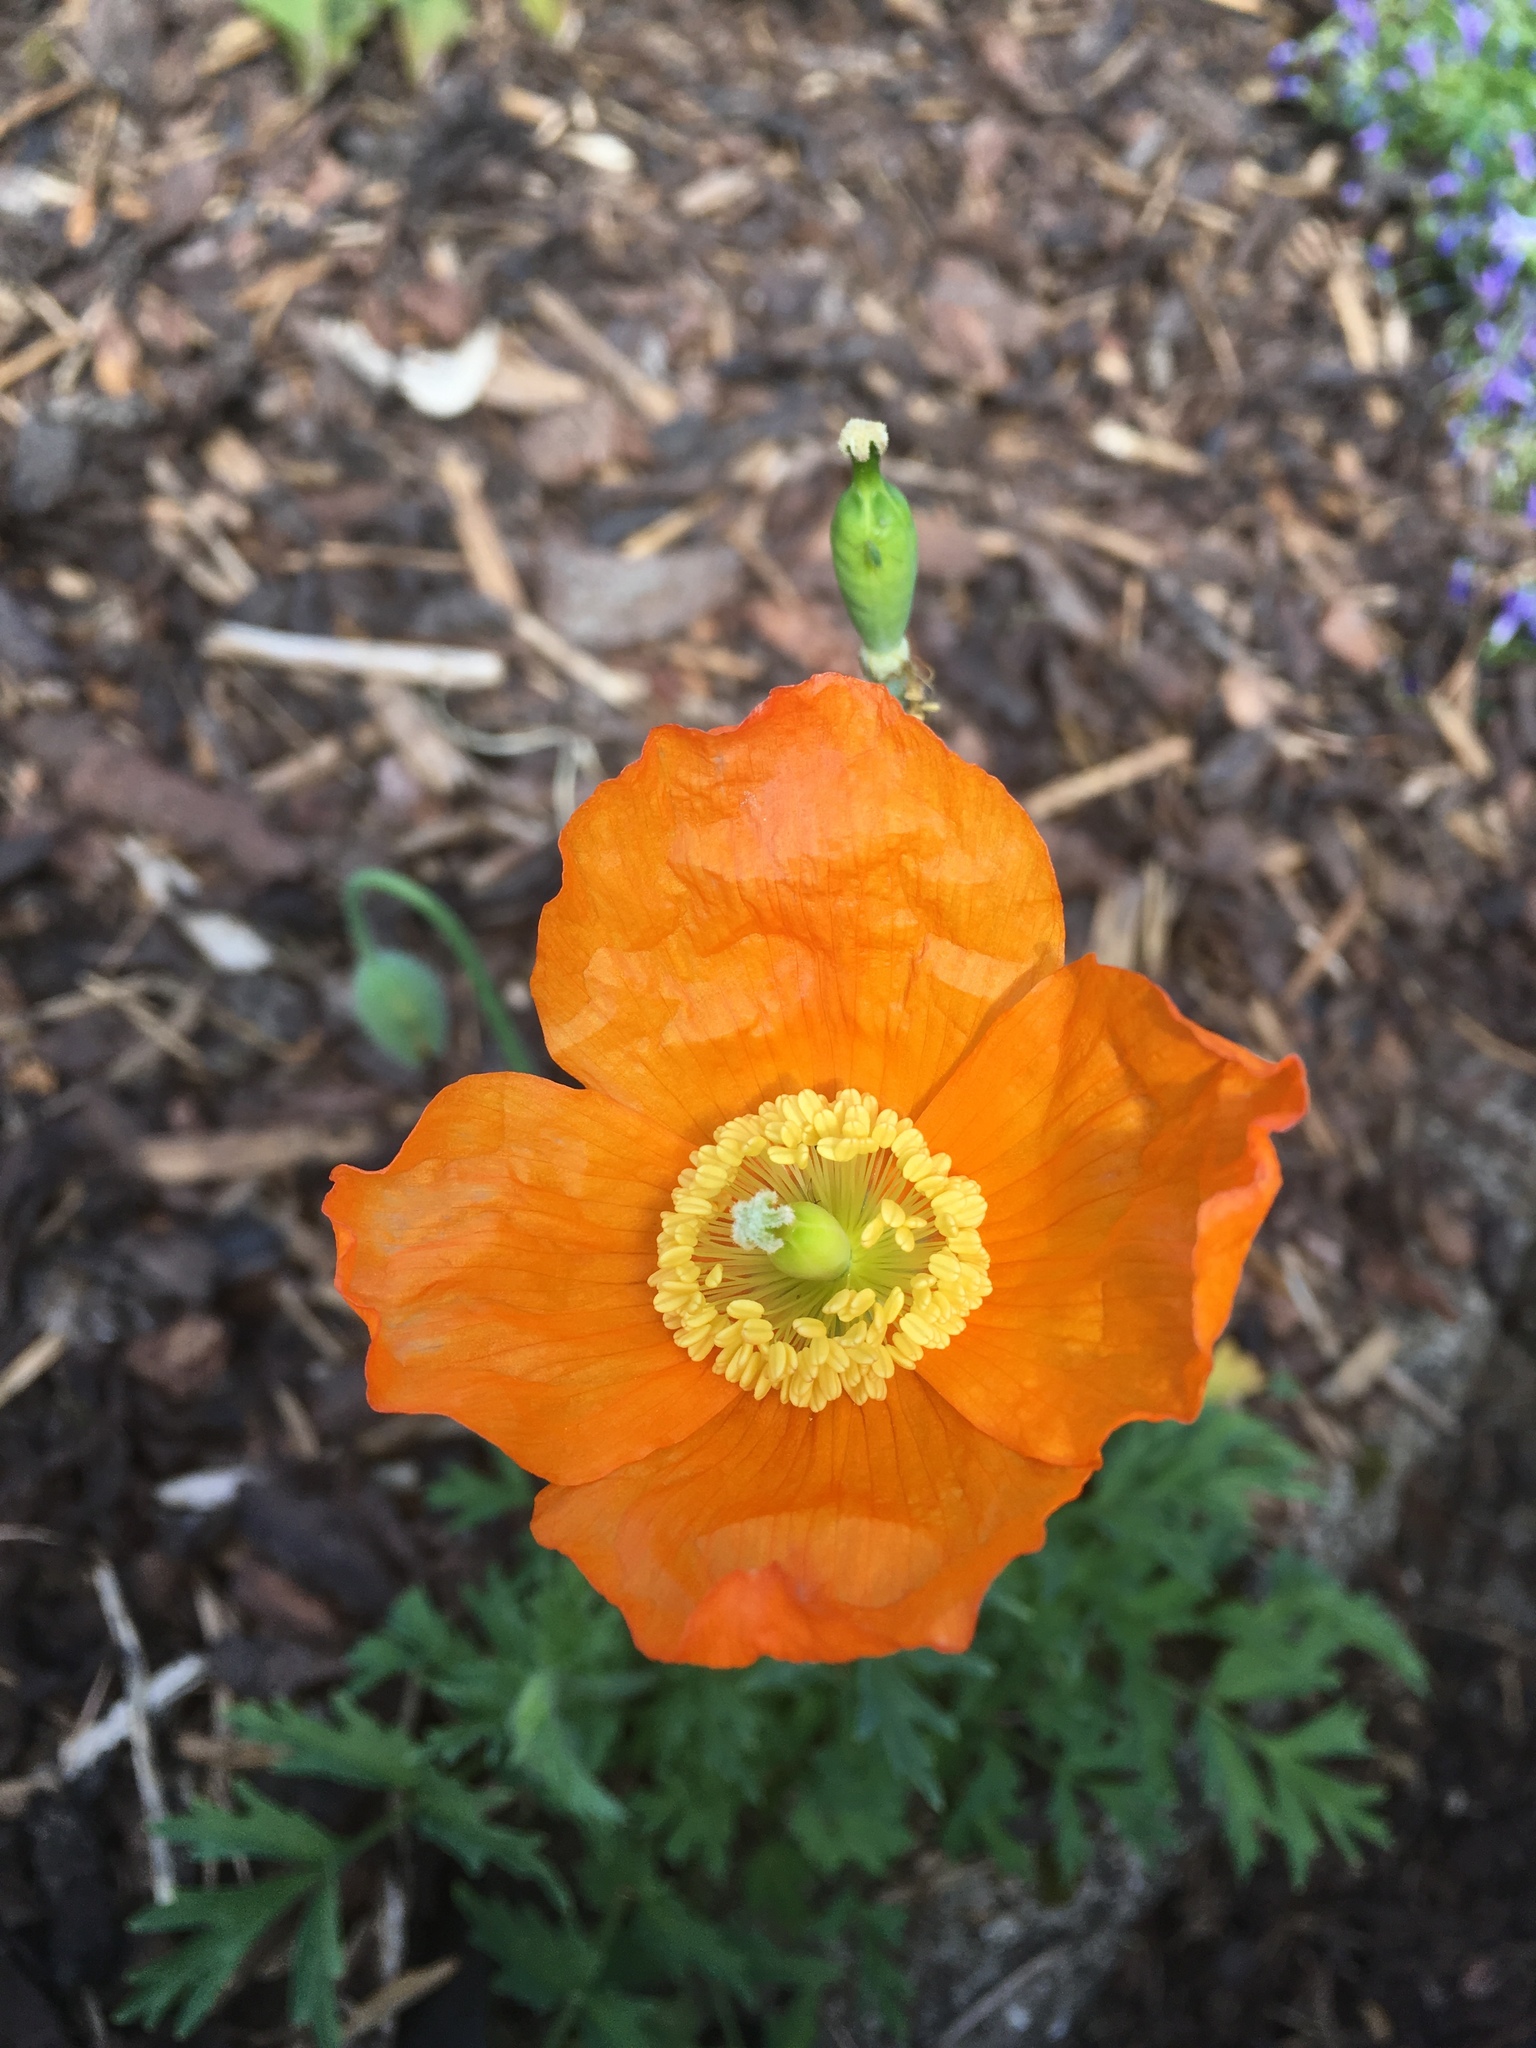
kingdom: Plantae
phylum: Tracheophyta
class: Magnoliopsida
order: Ranunculales
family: Papaveraceae
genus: Papaver
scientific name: Papaver cambricum
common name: Poppy
